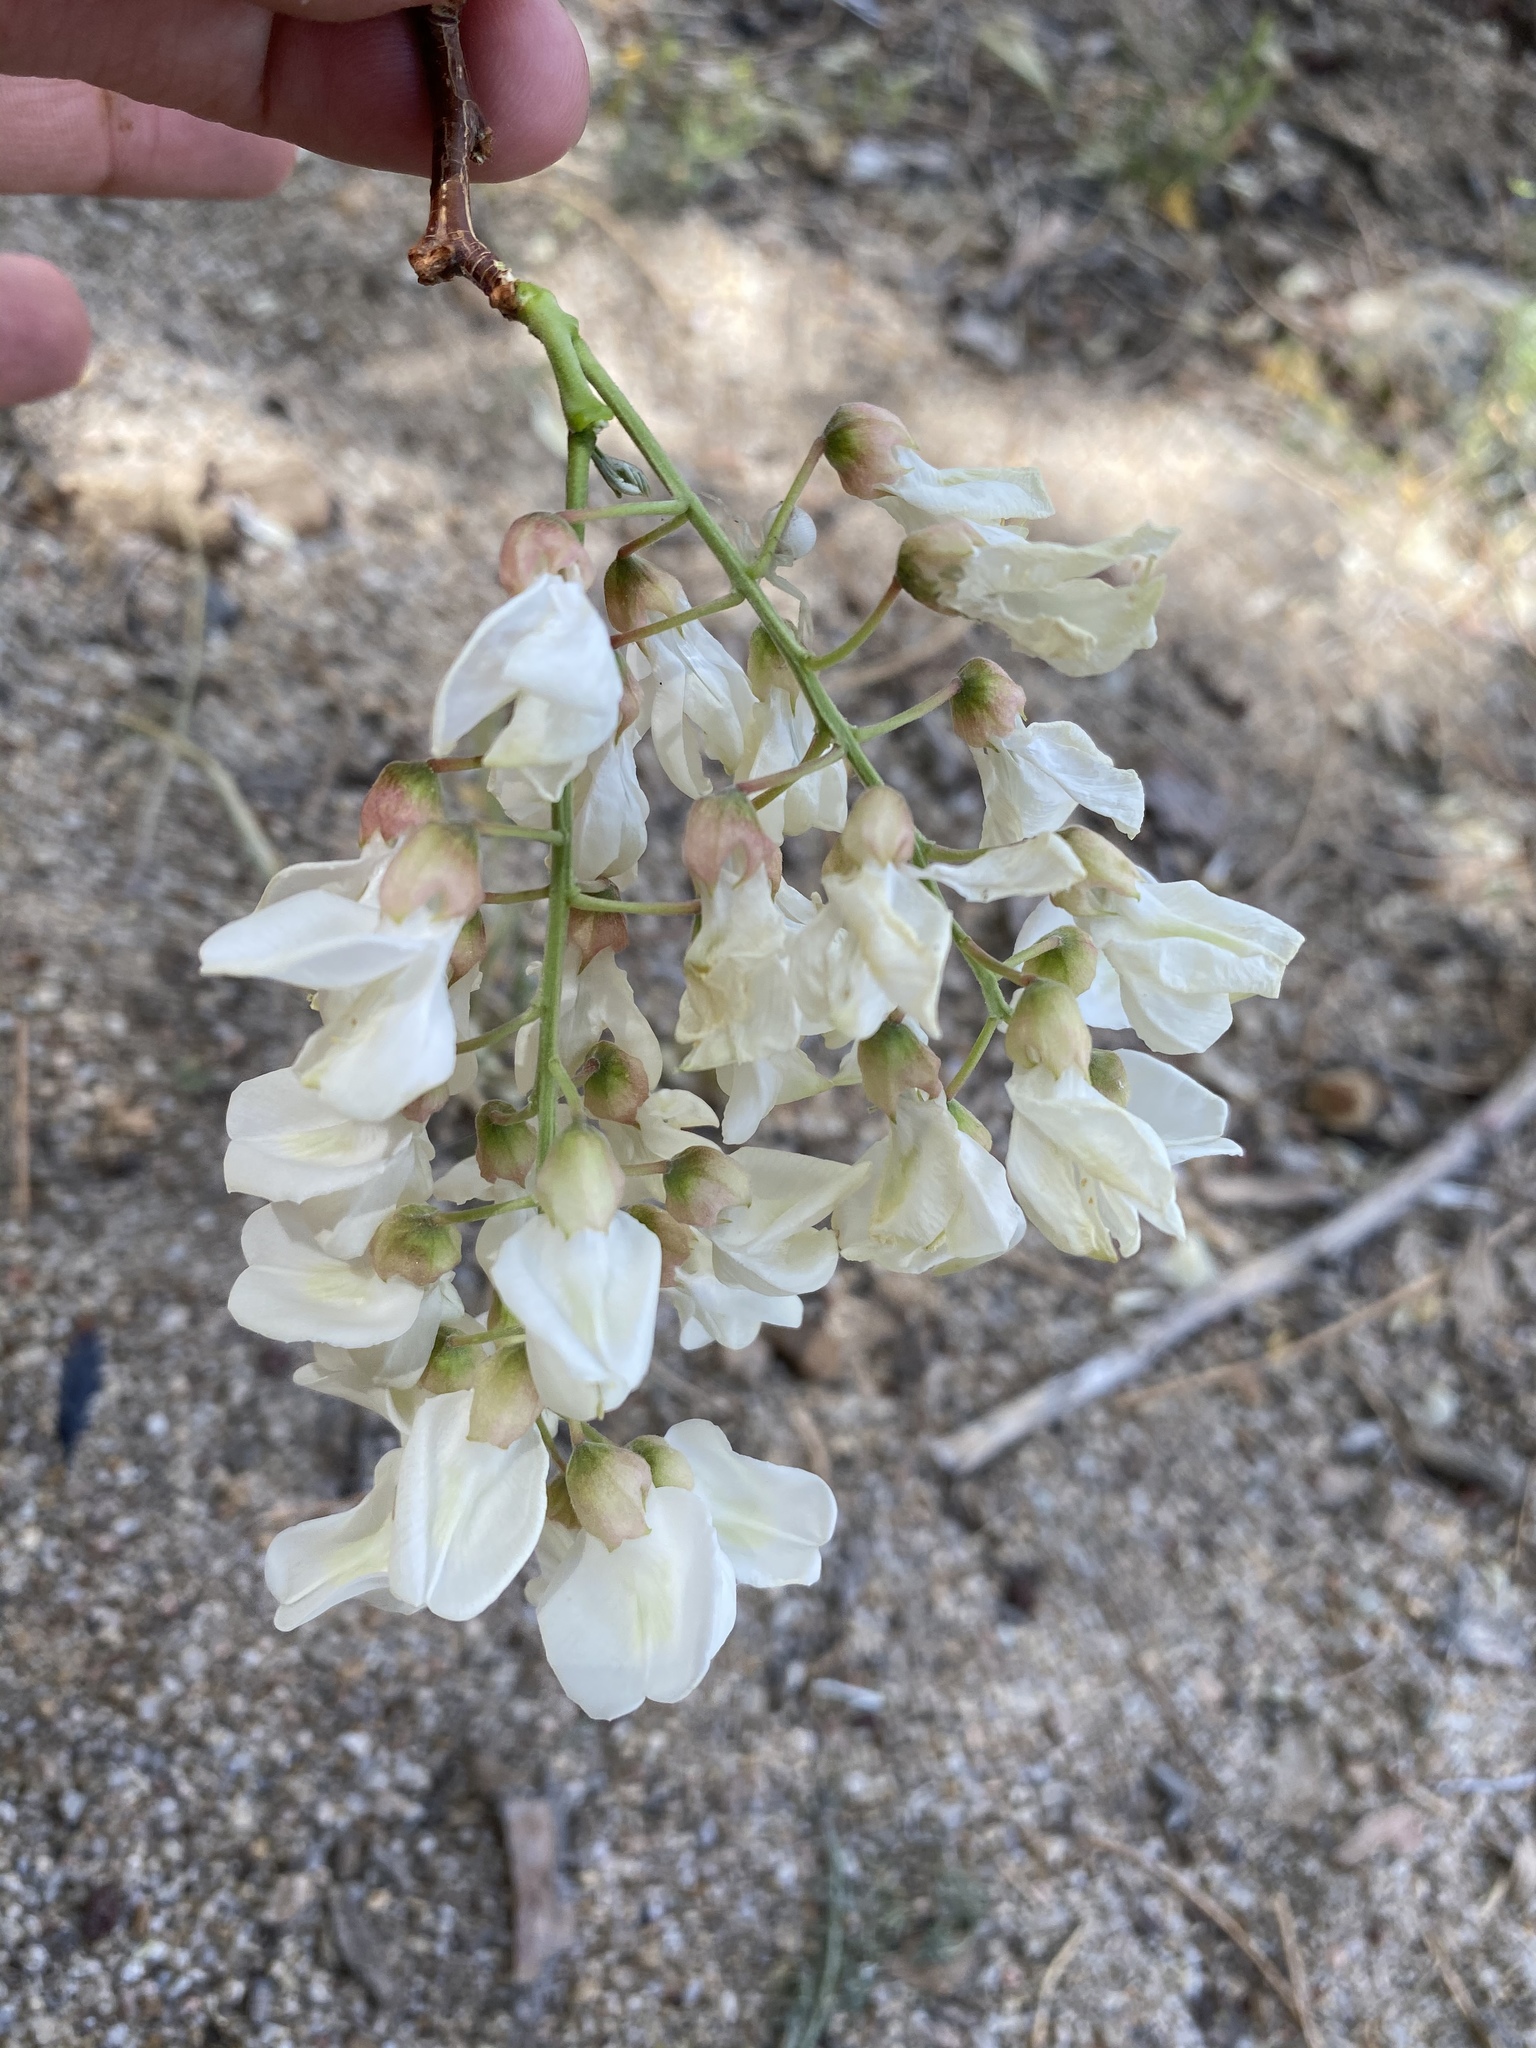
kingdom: Plantae
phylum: Tracheophyta
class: Magnoliopsida
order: Fabales
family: Fabaceae
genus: Robinia
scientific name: Robinia pseudoacacia
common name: Black locust
